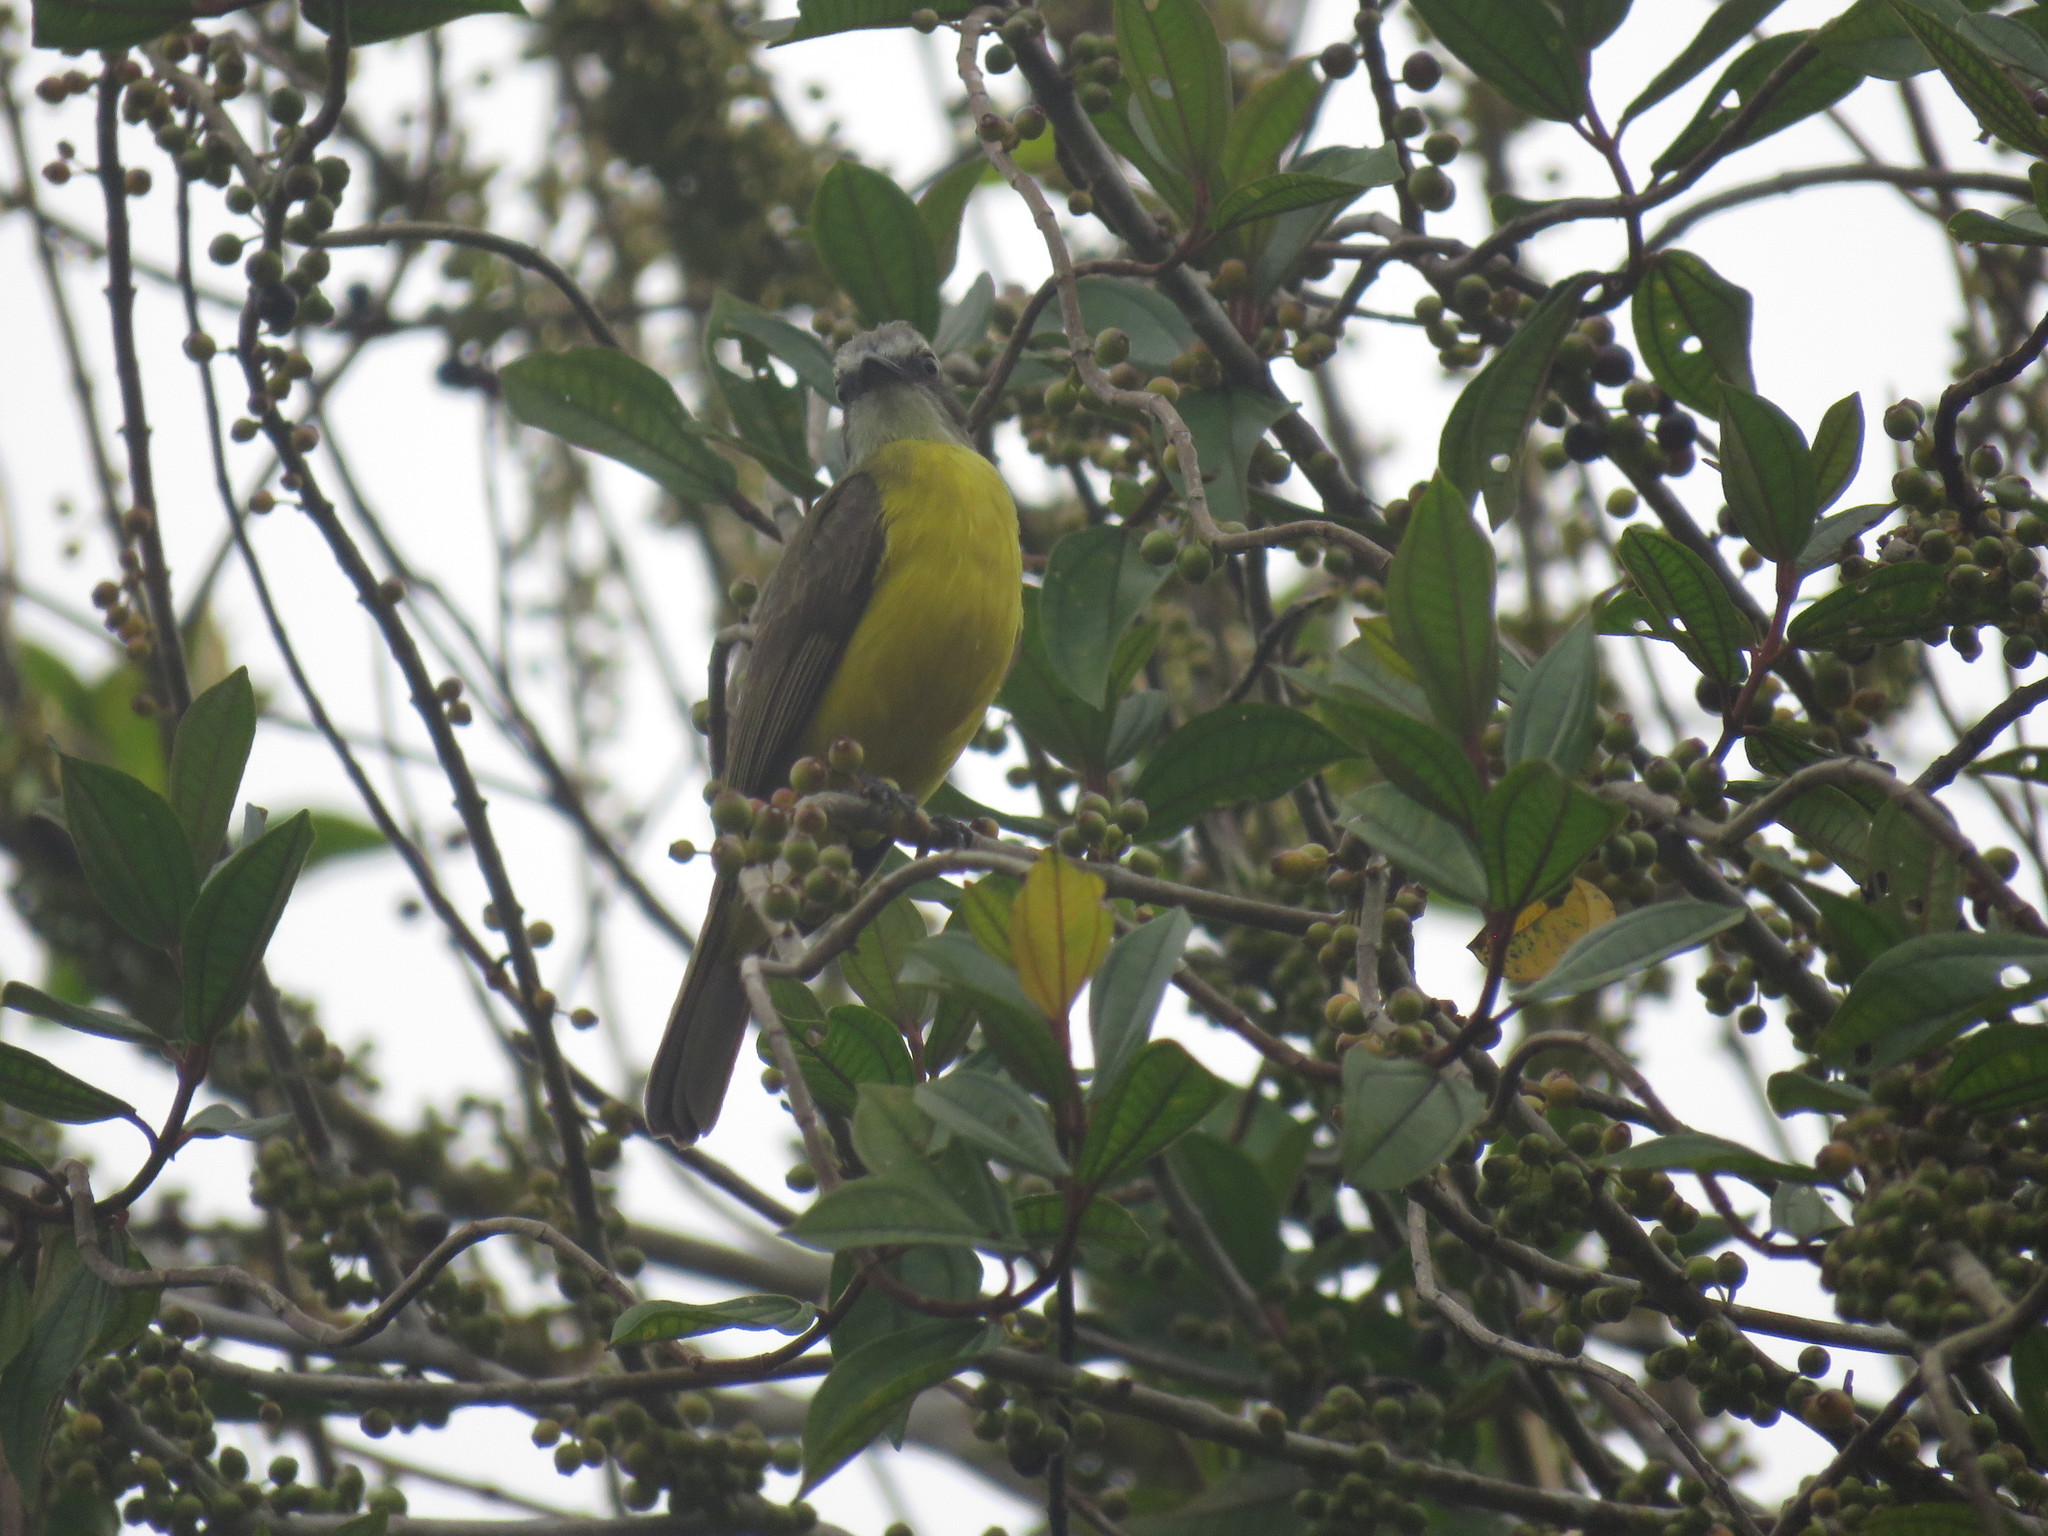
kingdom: Animalia
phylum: Chordata
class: Aves
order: Passeriformes
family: Tyrannidae
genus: Myiozetetes
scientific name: Myiozetetes granadensis
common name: Gray-capped flycatcher
